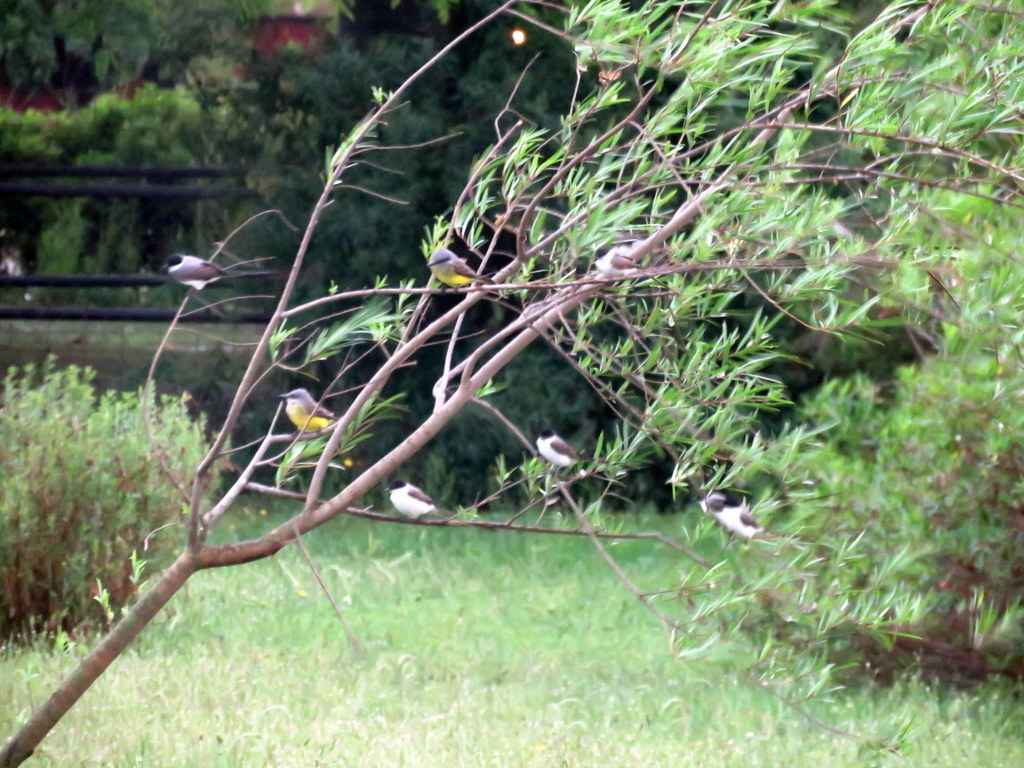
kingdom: Animalia
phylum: Chordata
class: Aves
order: Passeriformes
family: Tyrannidae
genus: Tyrannus
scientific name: Tyrannus melancholicus
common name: Tropical kingbird
